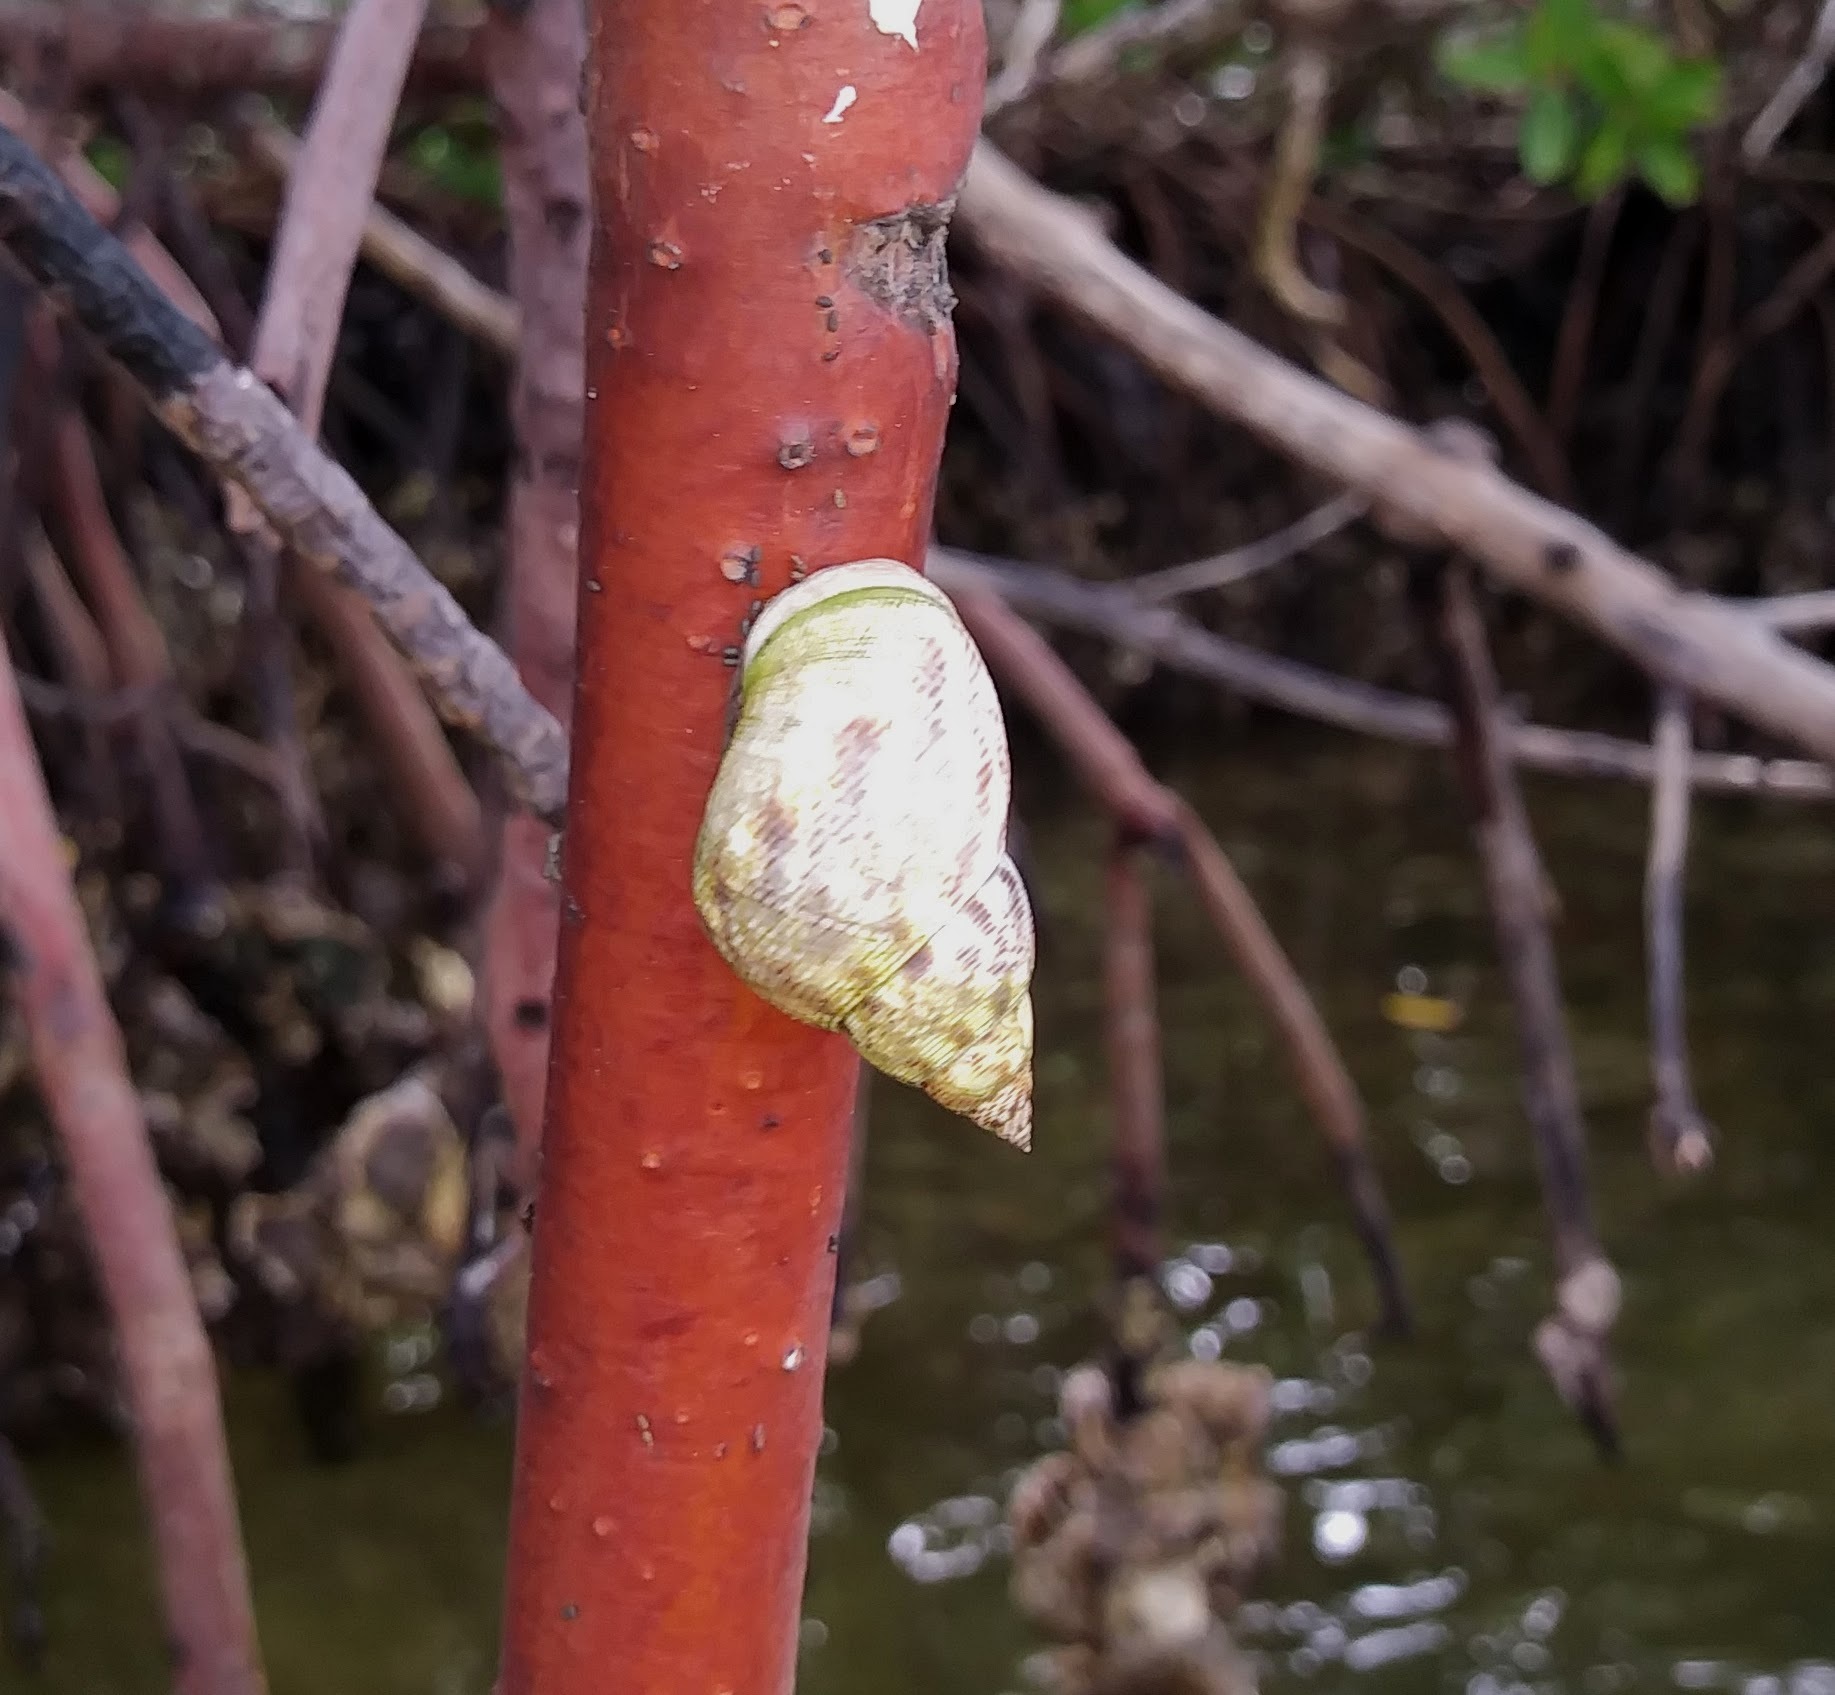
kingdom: Animalia
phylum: Mollusca
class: Gastropoda
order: Littorinimorpha
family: Littorinidae
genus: Littoraria
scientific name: Littoraria angulifera
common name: Mangrove periwinkle
